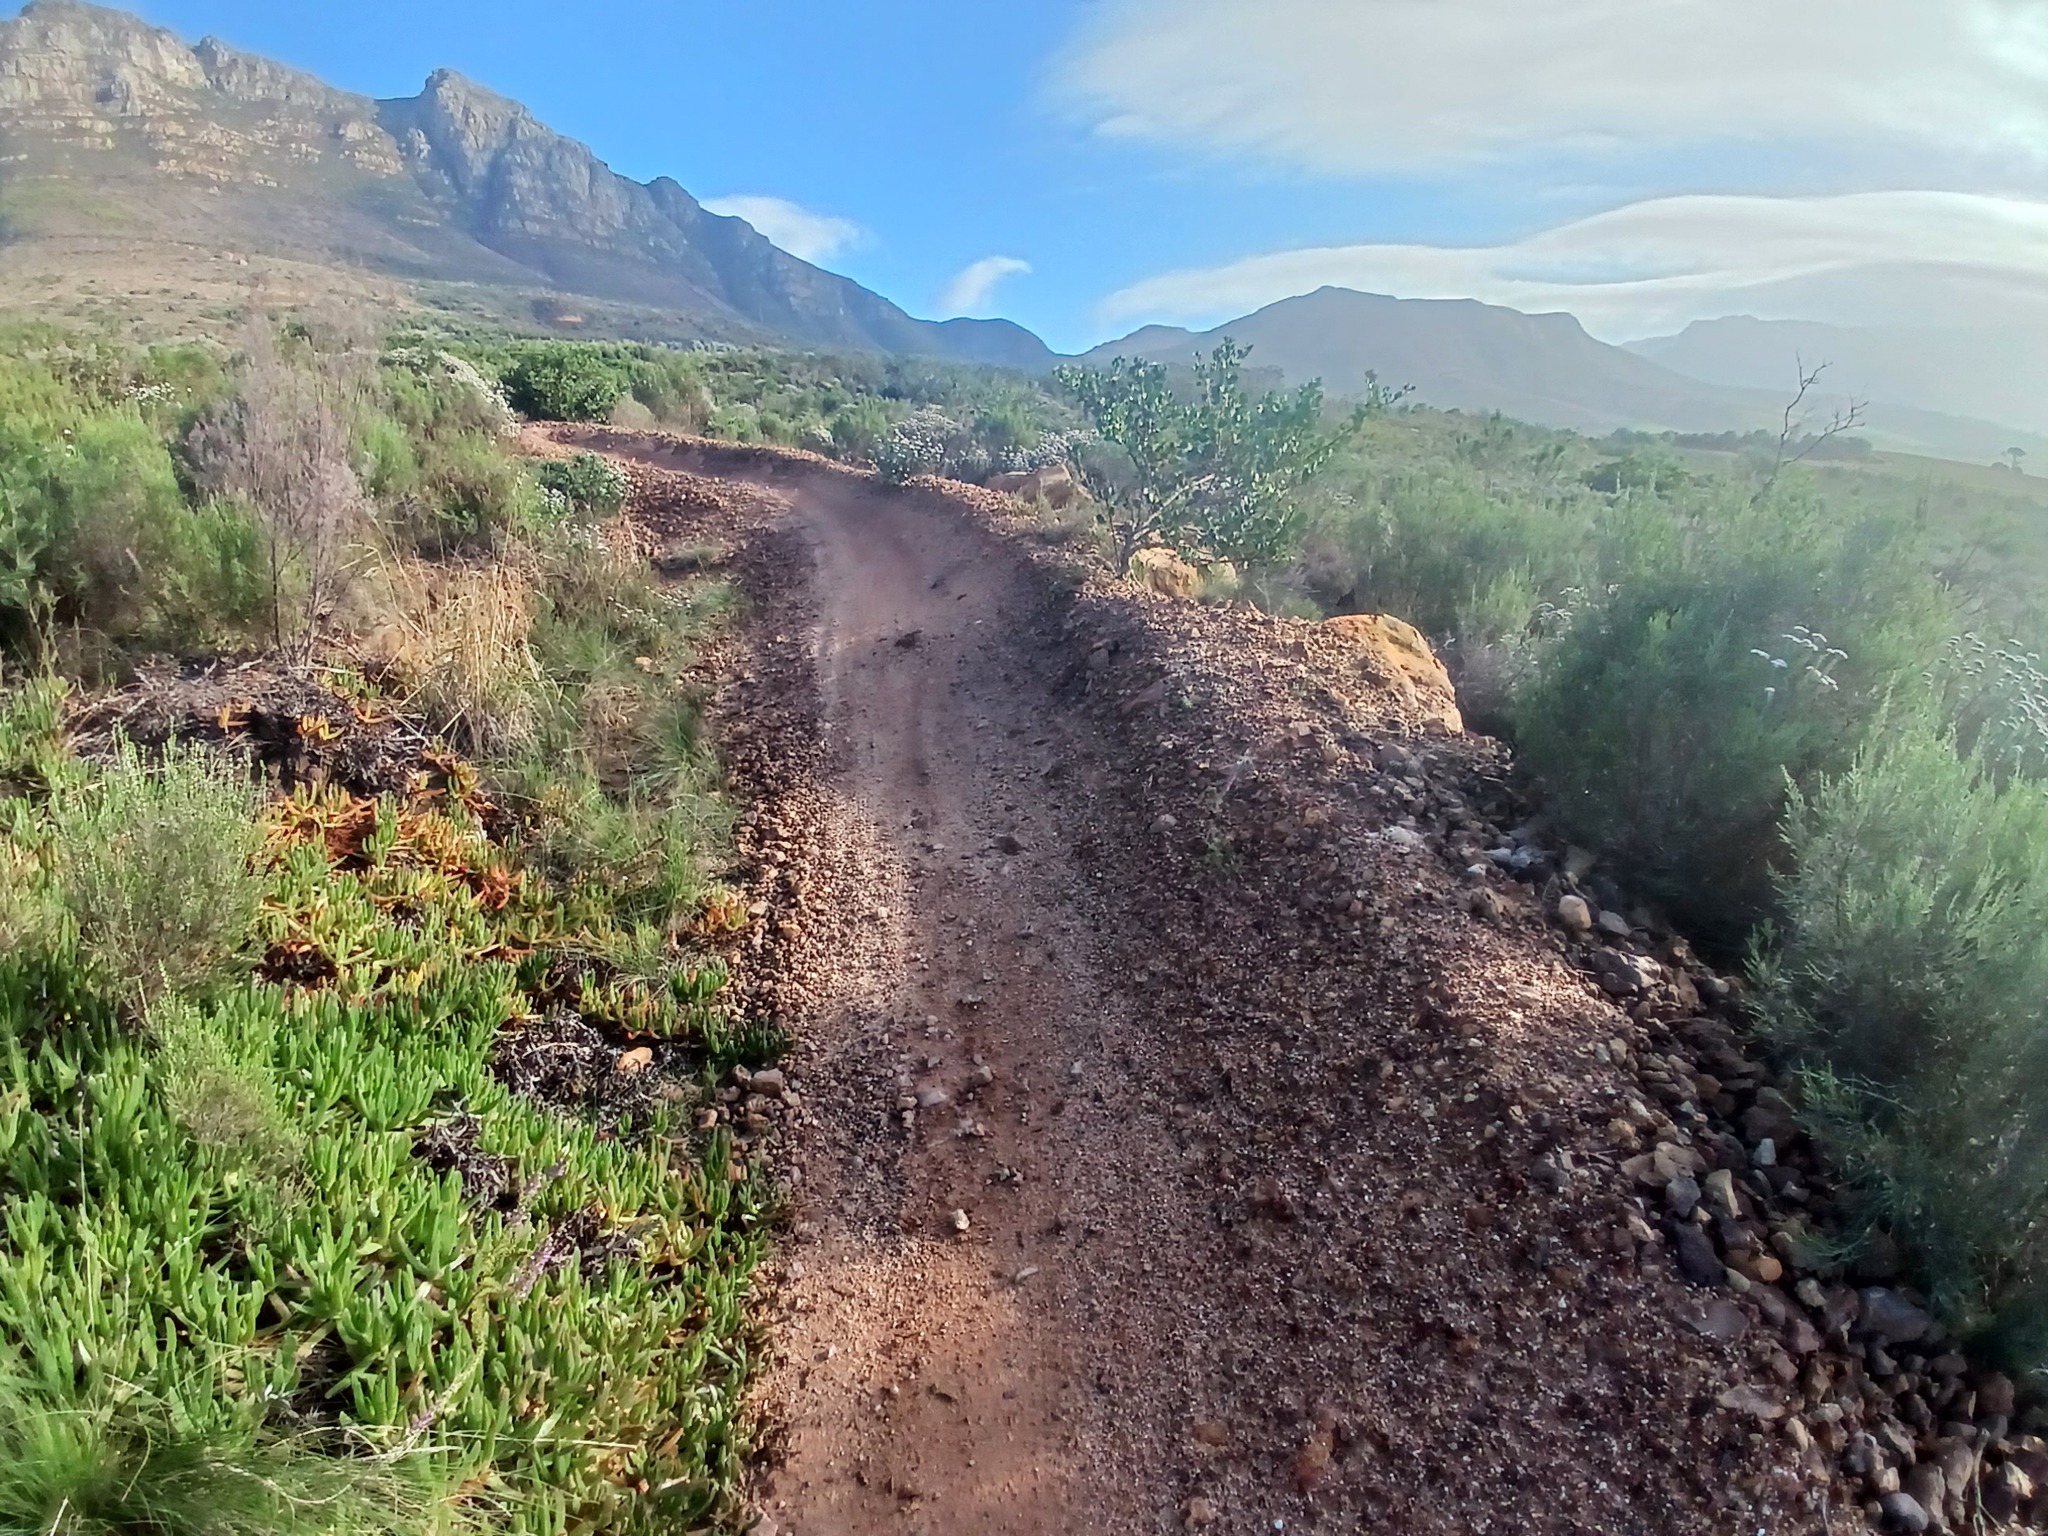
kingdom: Plantae
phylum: Tracheophyta
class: Magnoliopsida
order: Caryophyllales
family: Aizoaceae
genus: Carpobrotus
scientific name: Carpobrotus edulis
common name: Hottentot-fig
